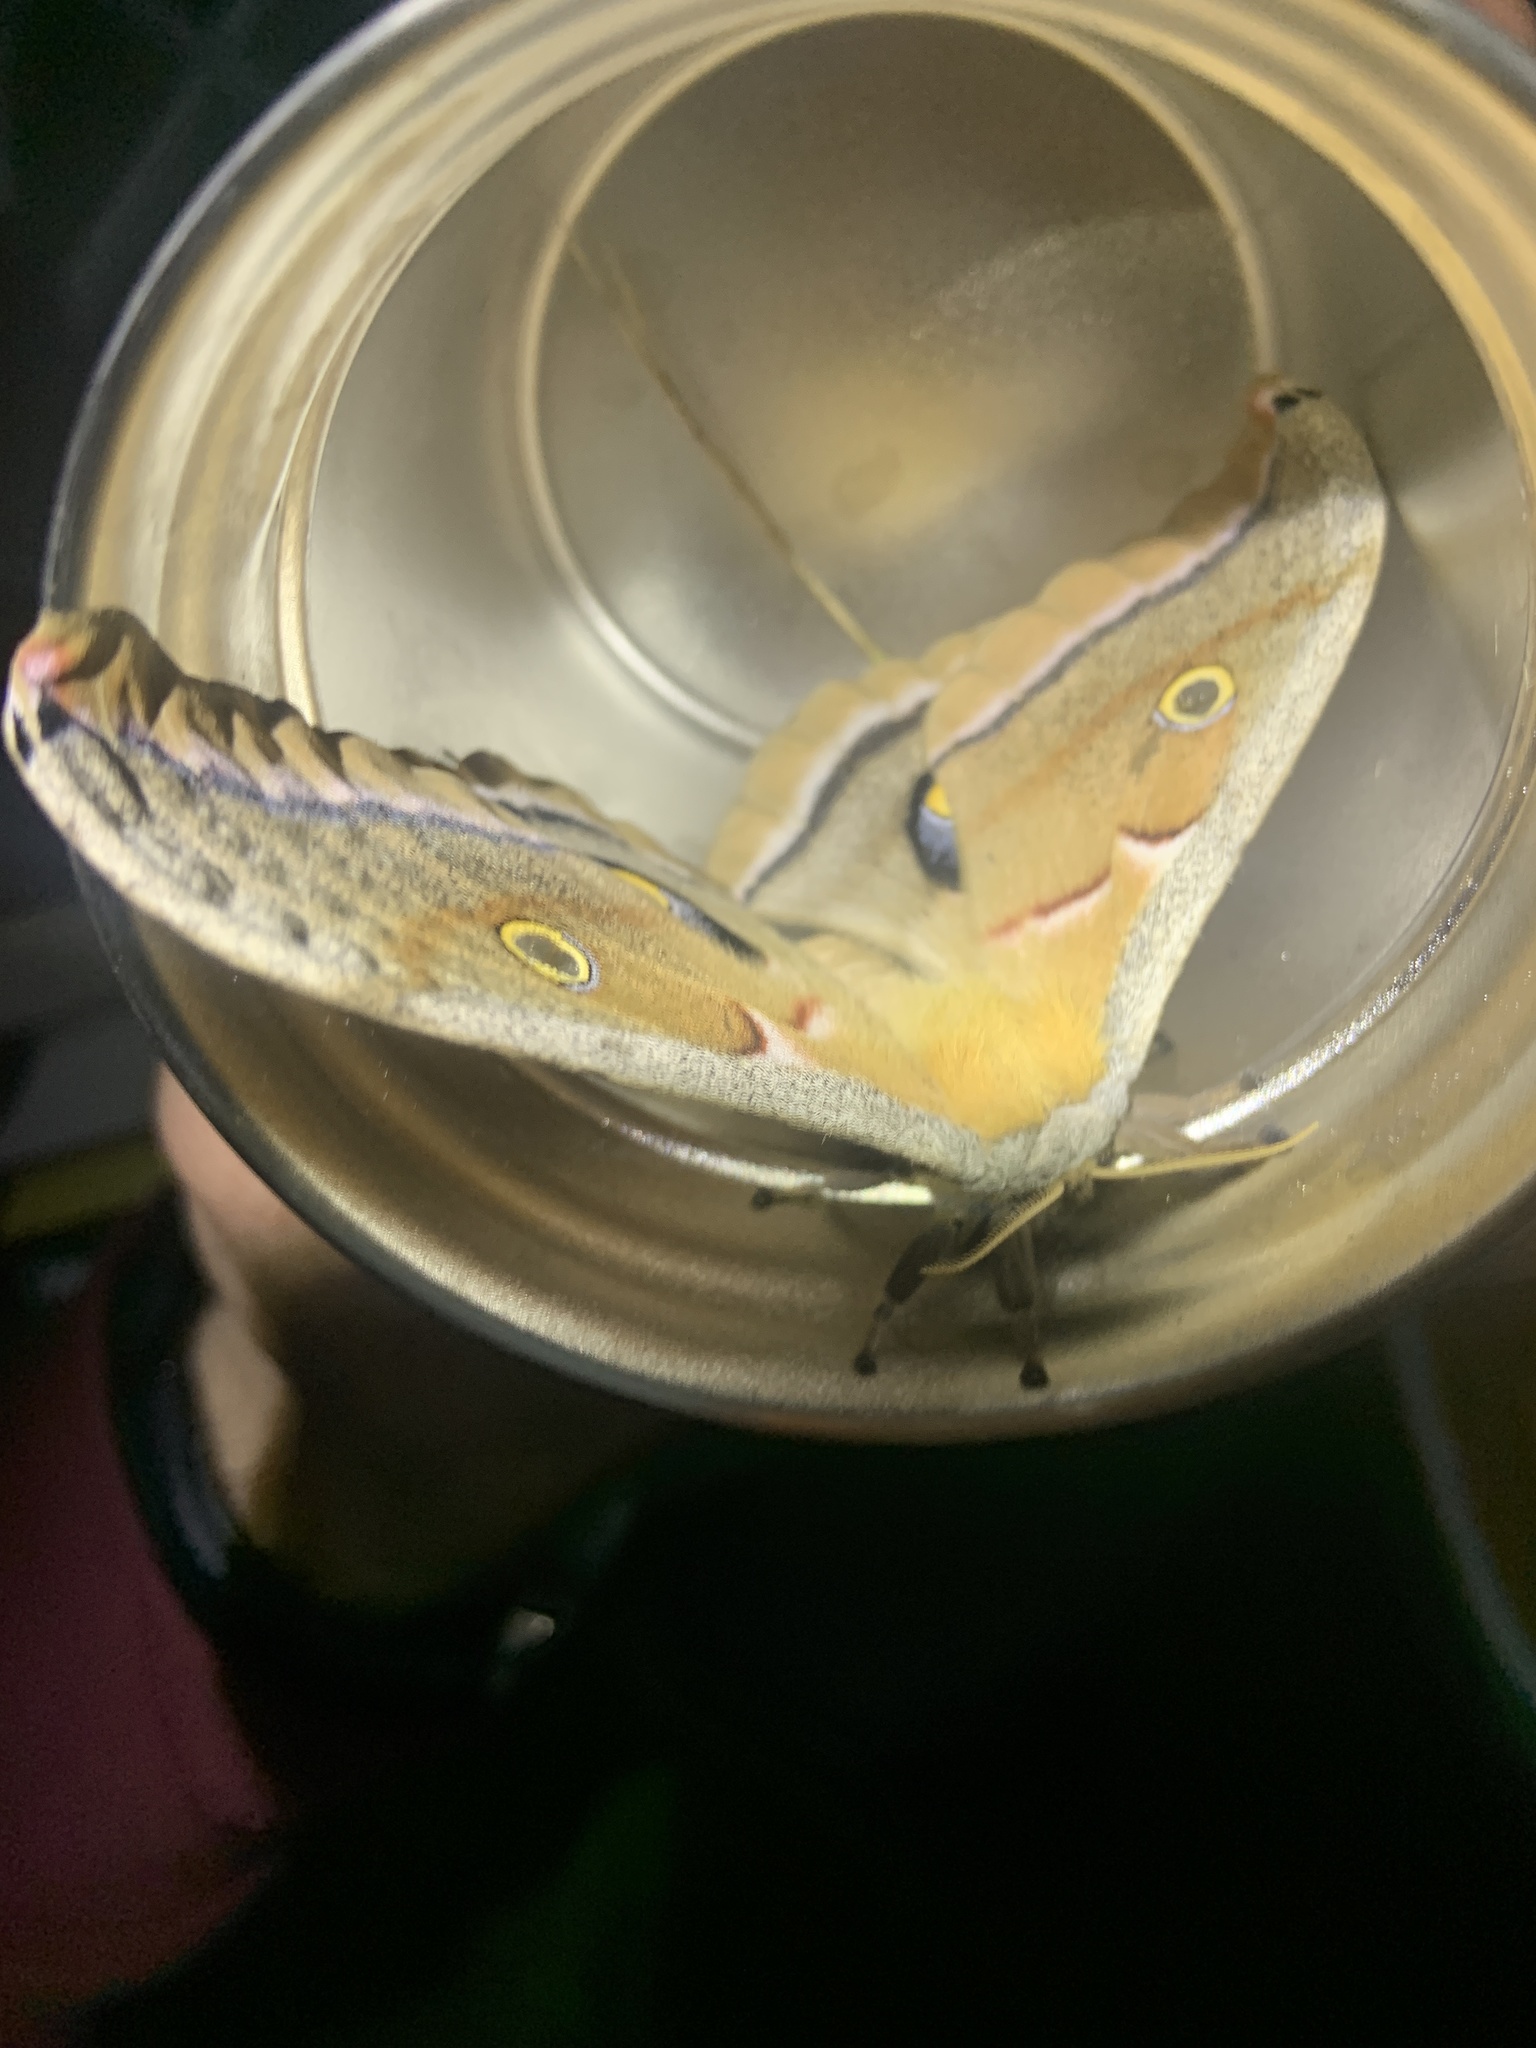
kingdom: Animalia
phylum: Arthropoda
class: Insecta
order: Lepidoptera
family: Saturniidae
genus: Antheraea
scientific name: Antheraea polyphemus
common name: Polyphemus moth
